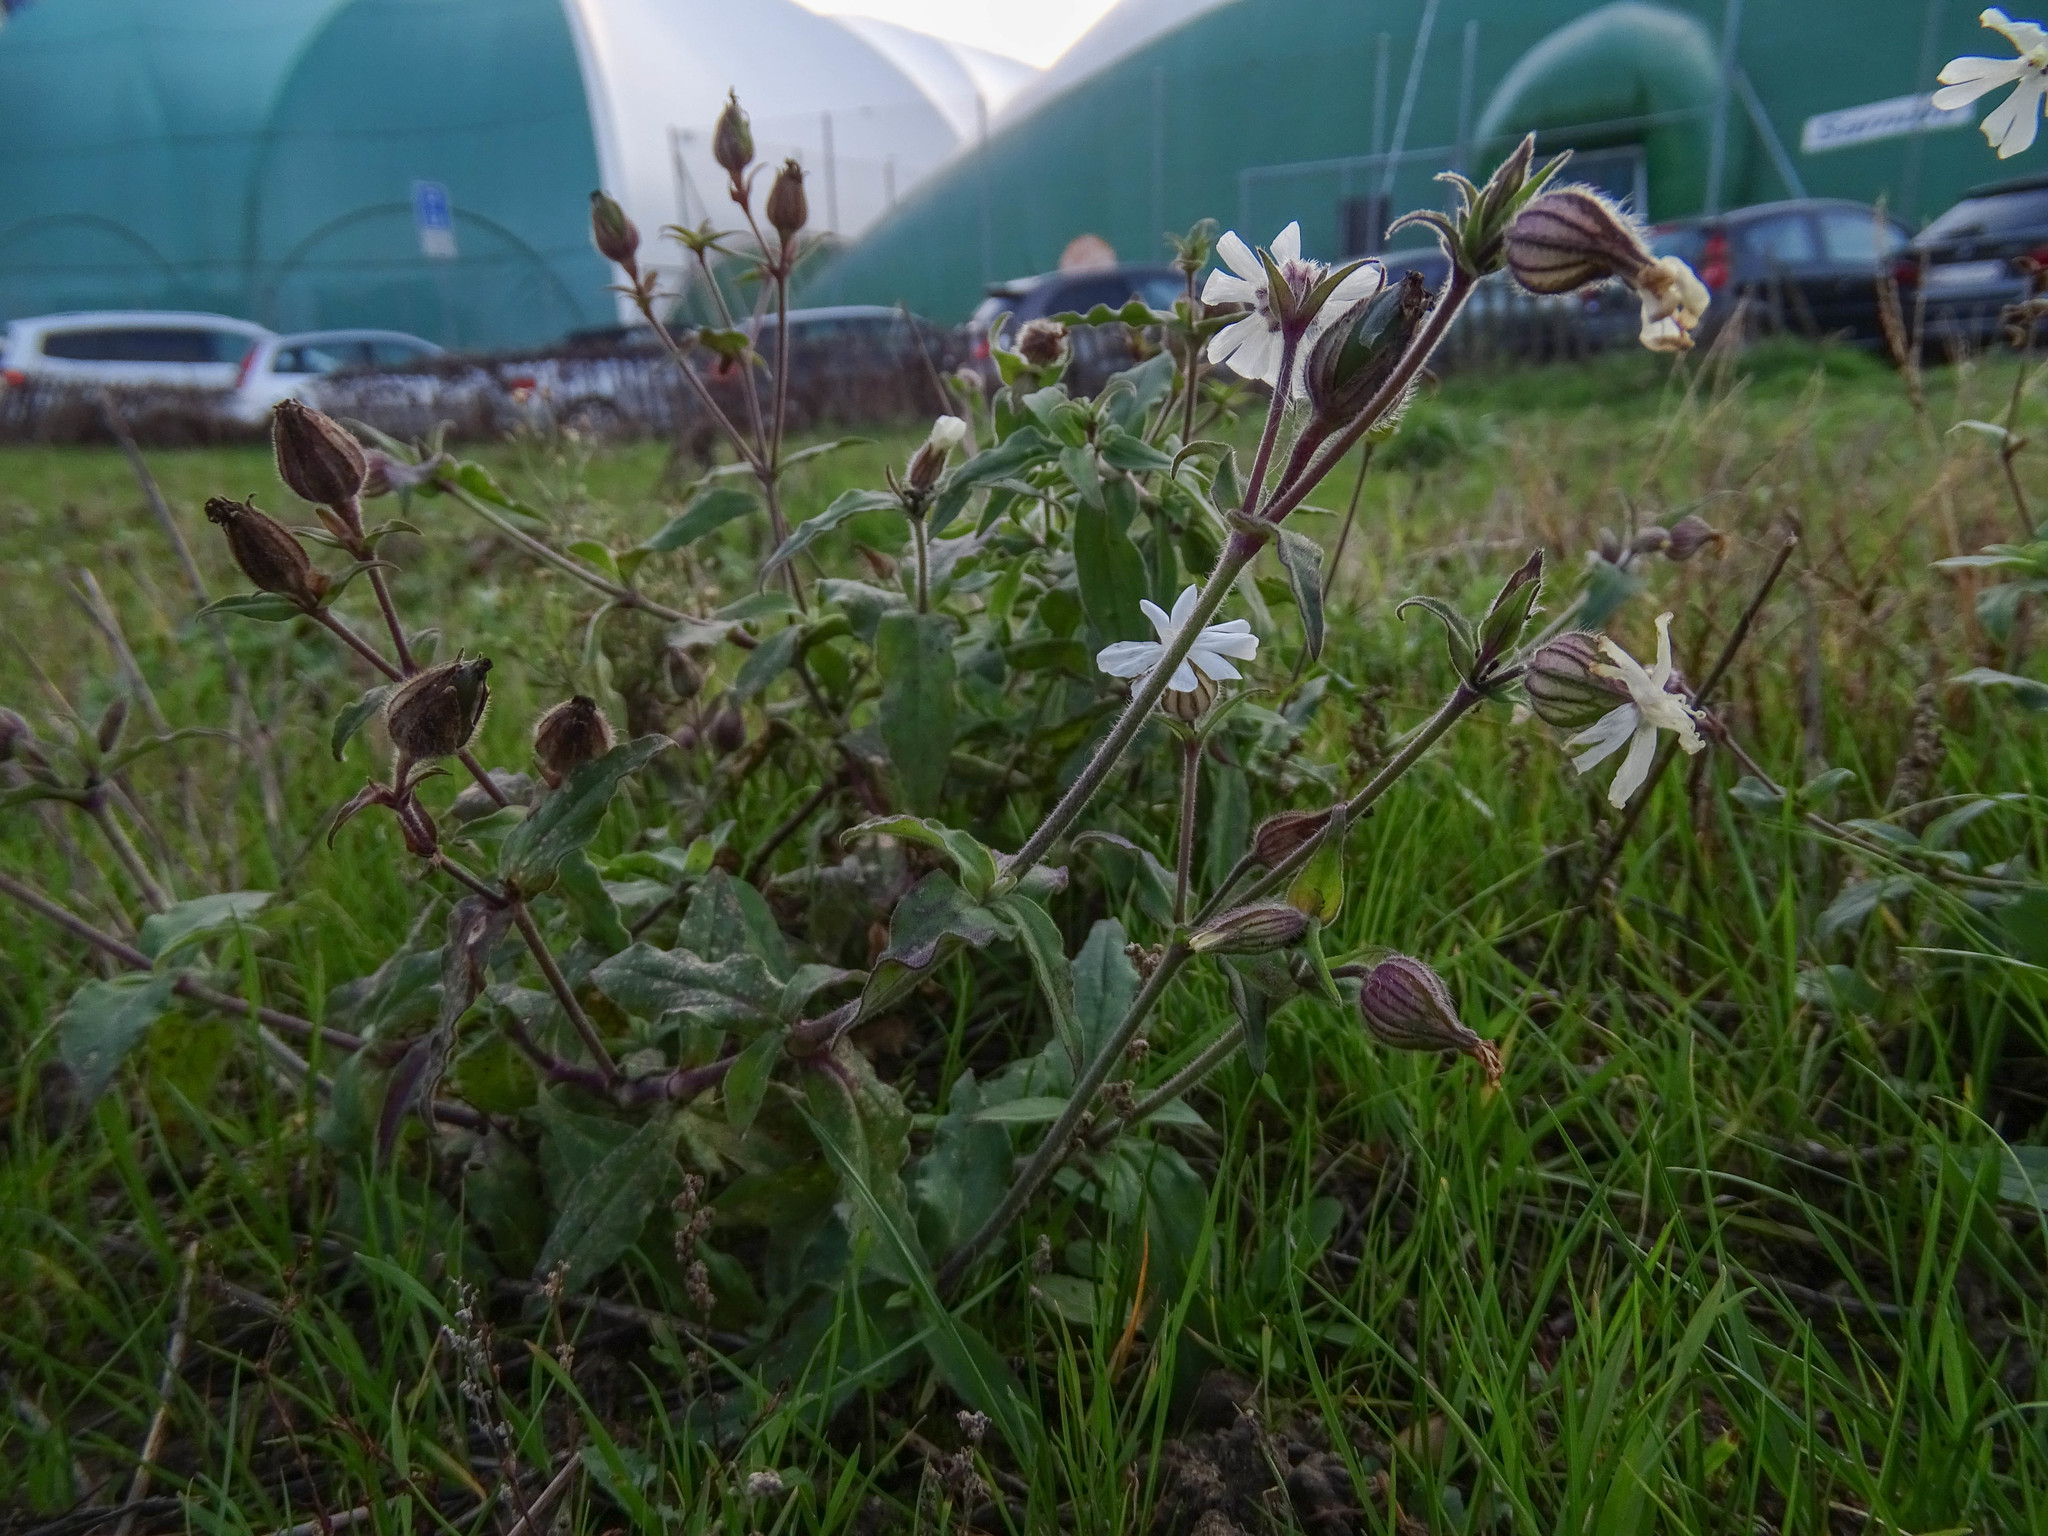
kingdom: Plantae
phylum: Tracheophyta
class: Magnoliopsida
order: Caryophyllales
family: Caryophyllaceae
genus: Silene
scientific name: Silene latifolia
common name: White campion
